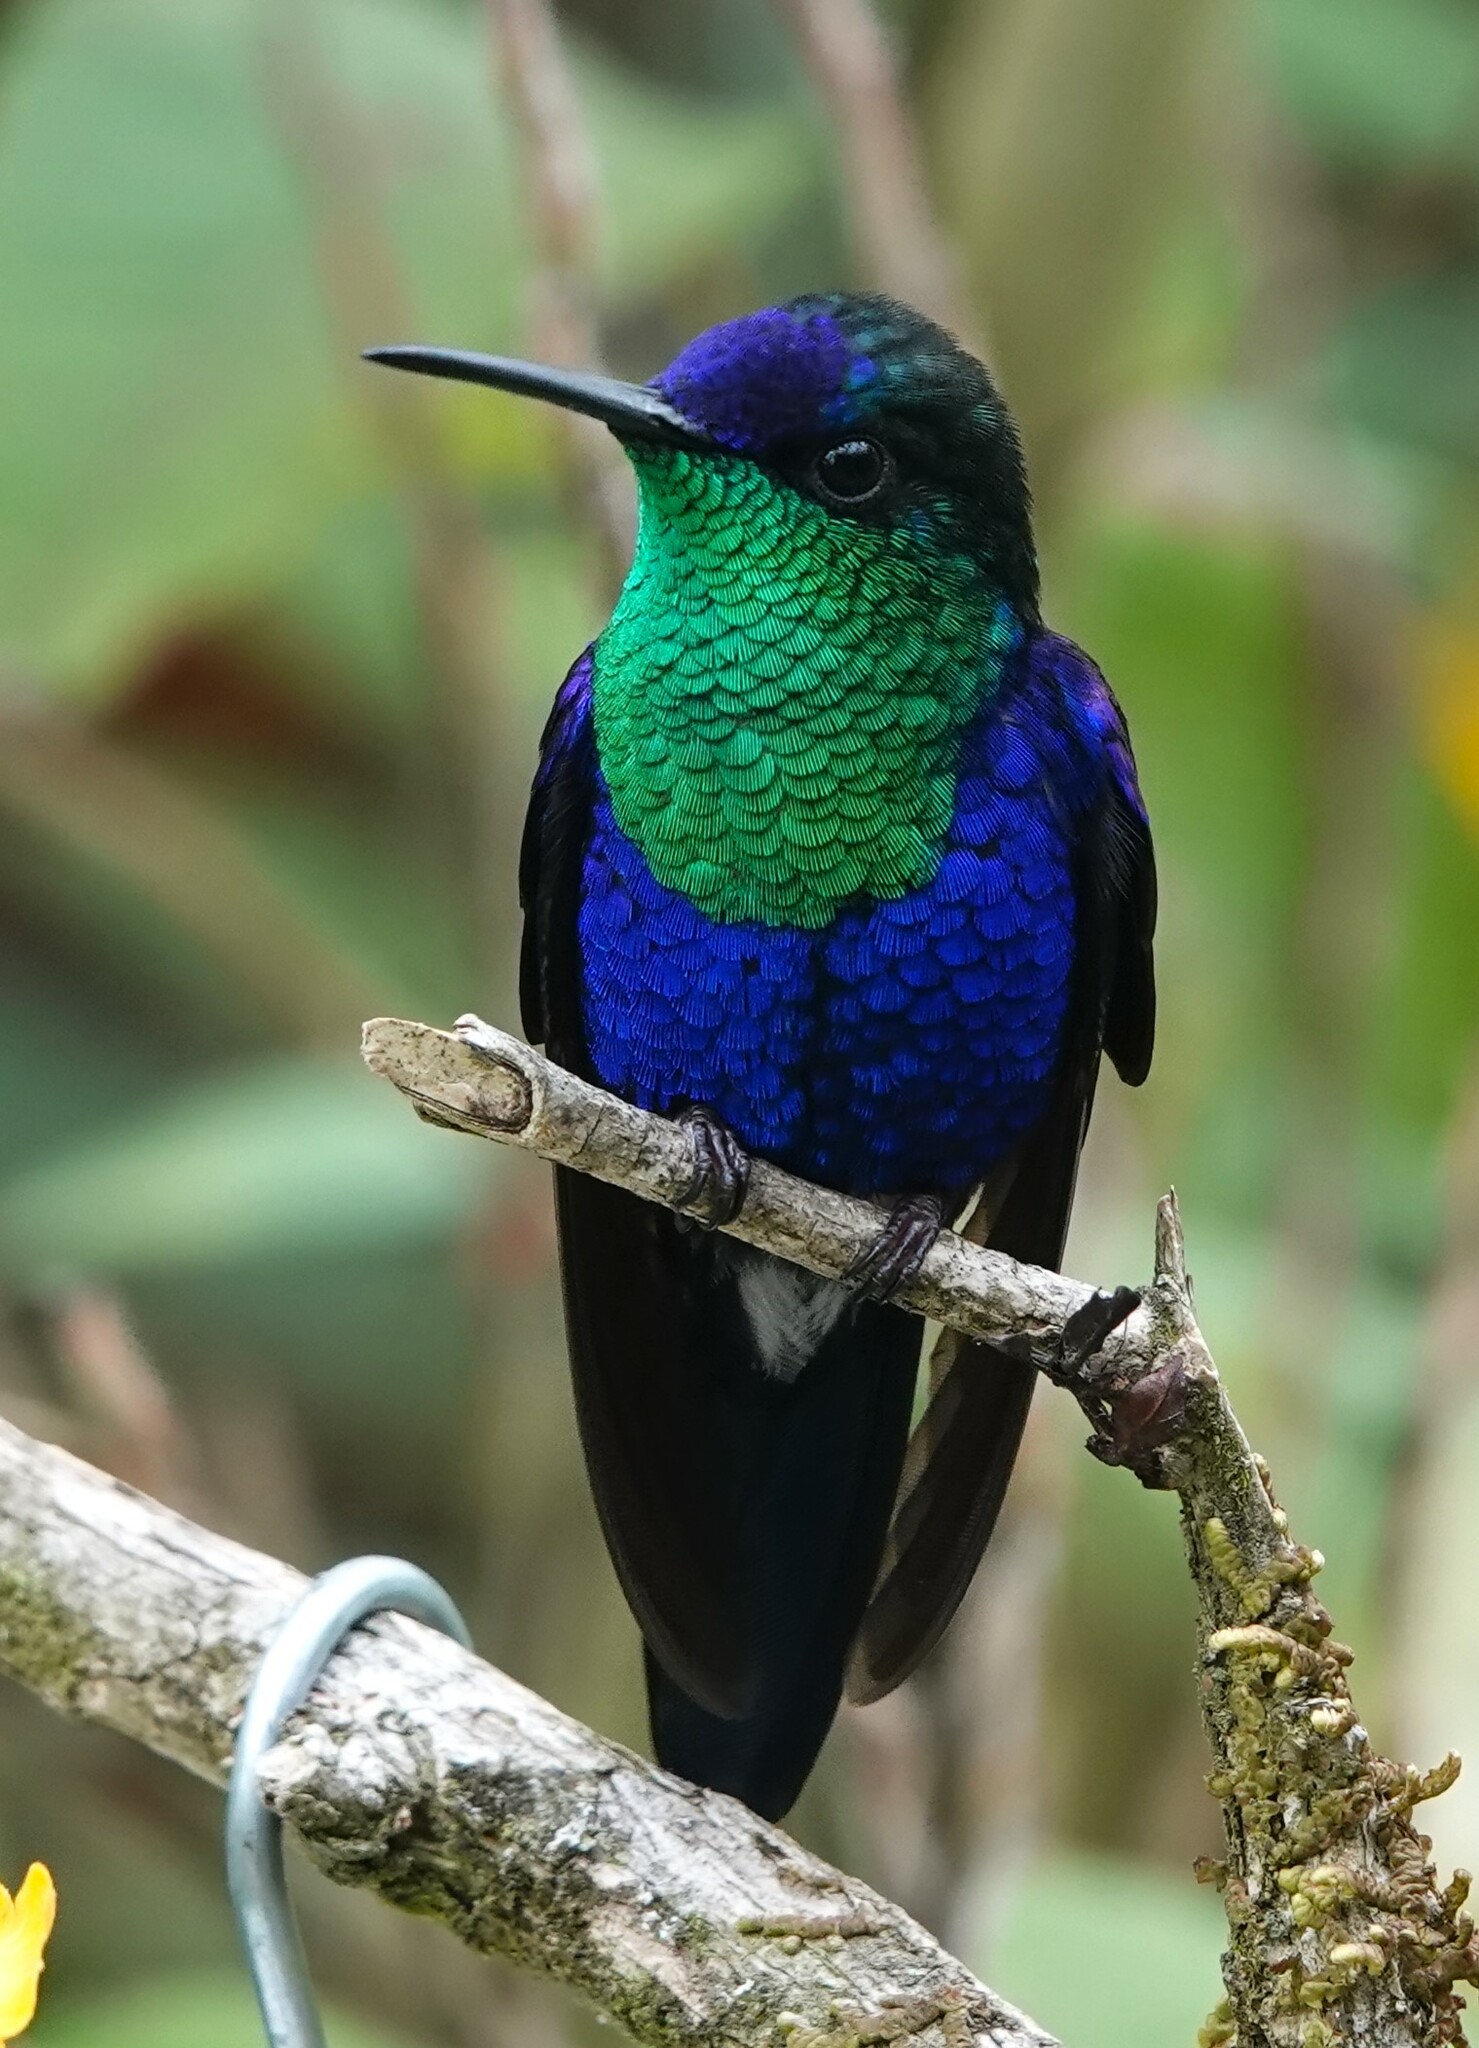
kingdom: Animalia
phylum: Chordata
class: Aves
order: Apodiformes
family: Trochilidae
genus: Thalurania
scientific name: Thalurania colombica
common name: Crowned woodnymph
